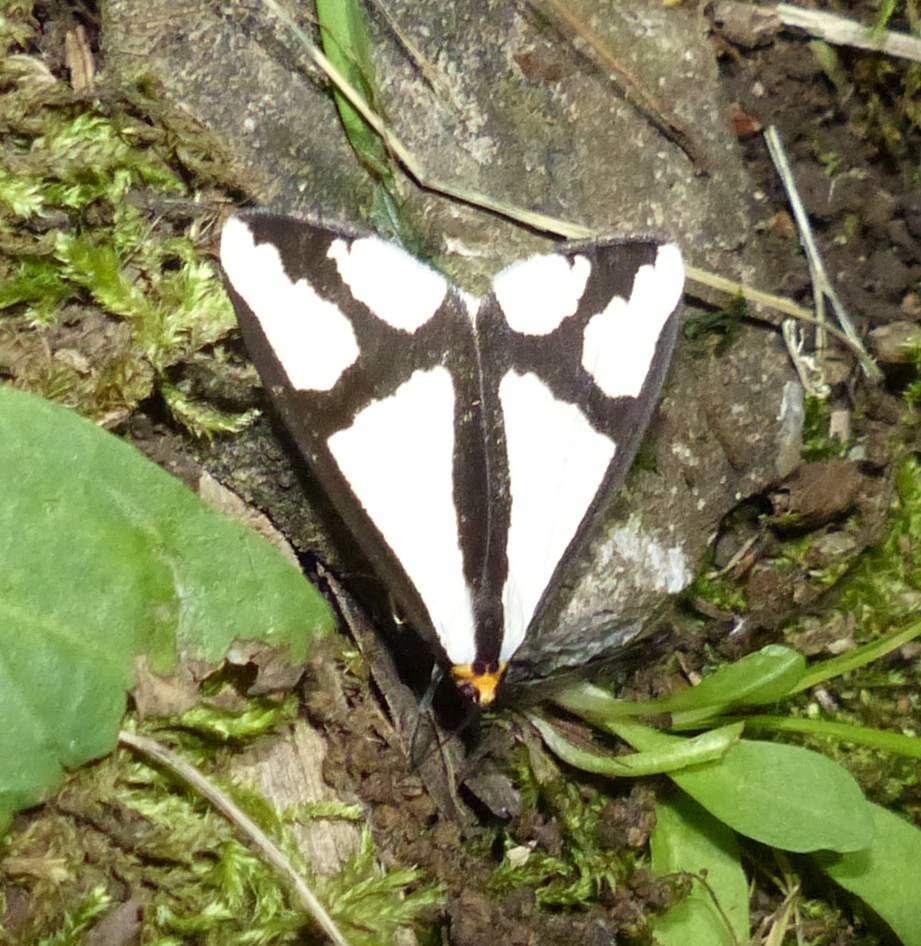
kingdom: Animalia
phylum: Arthropoda
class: Insecta
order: Lepidoptera
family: Erebidae
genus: Haploa
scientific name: Haploa contigua
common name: Neighbor moth
